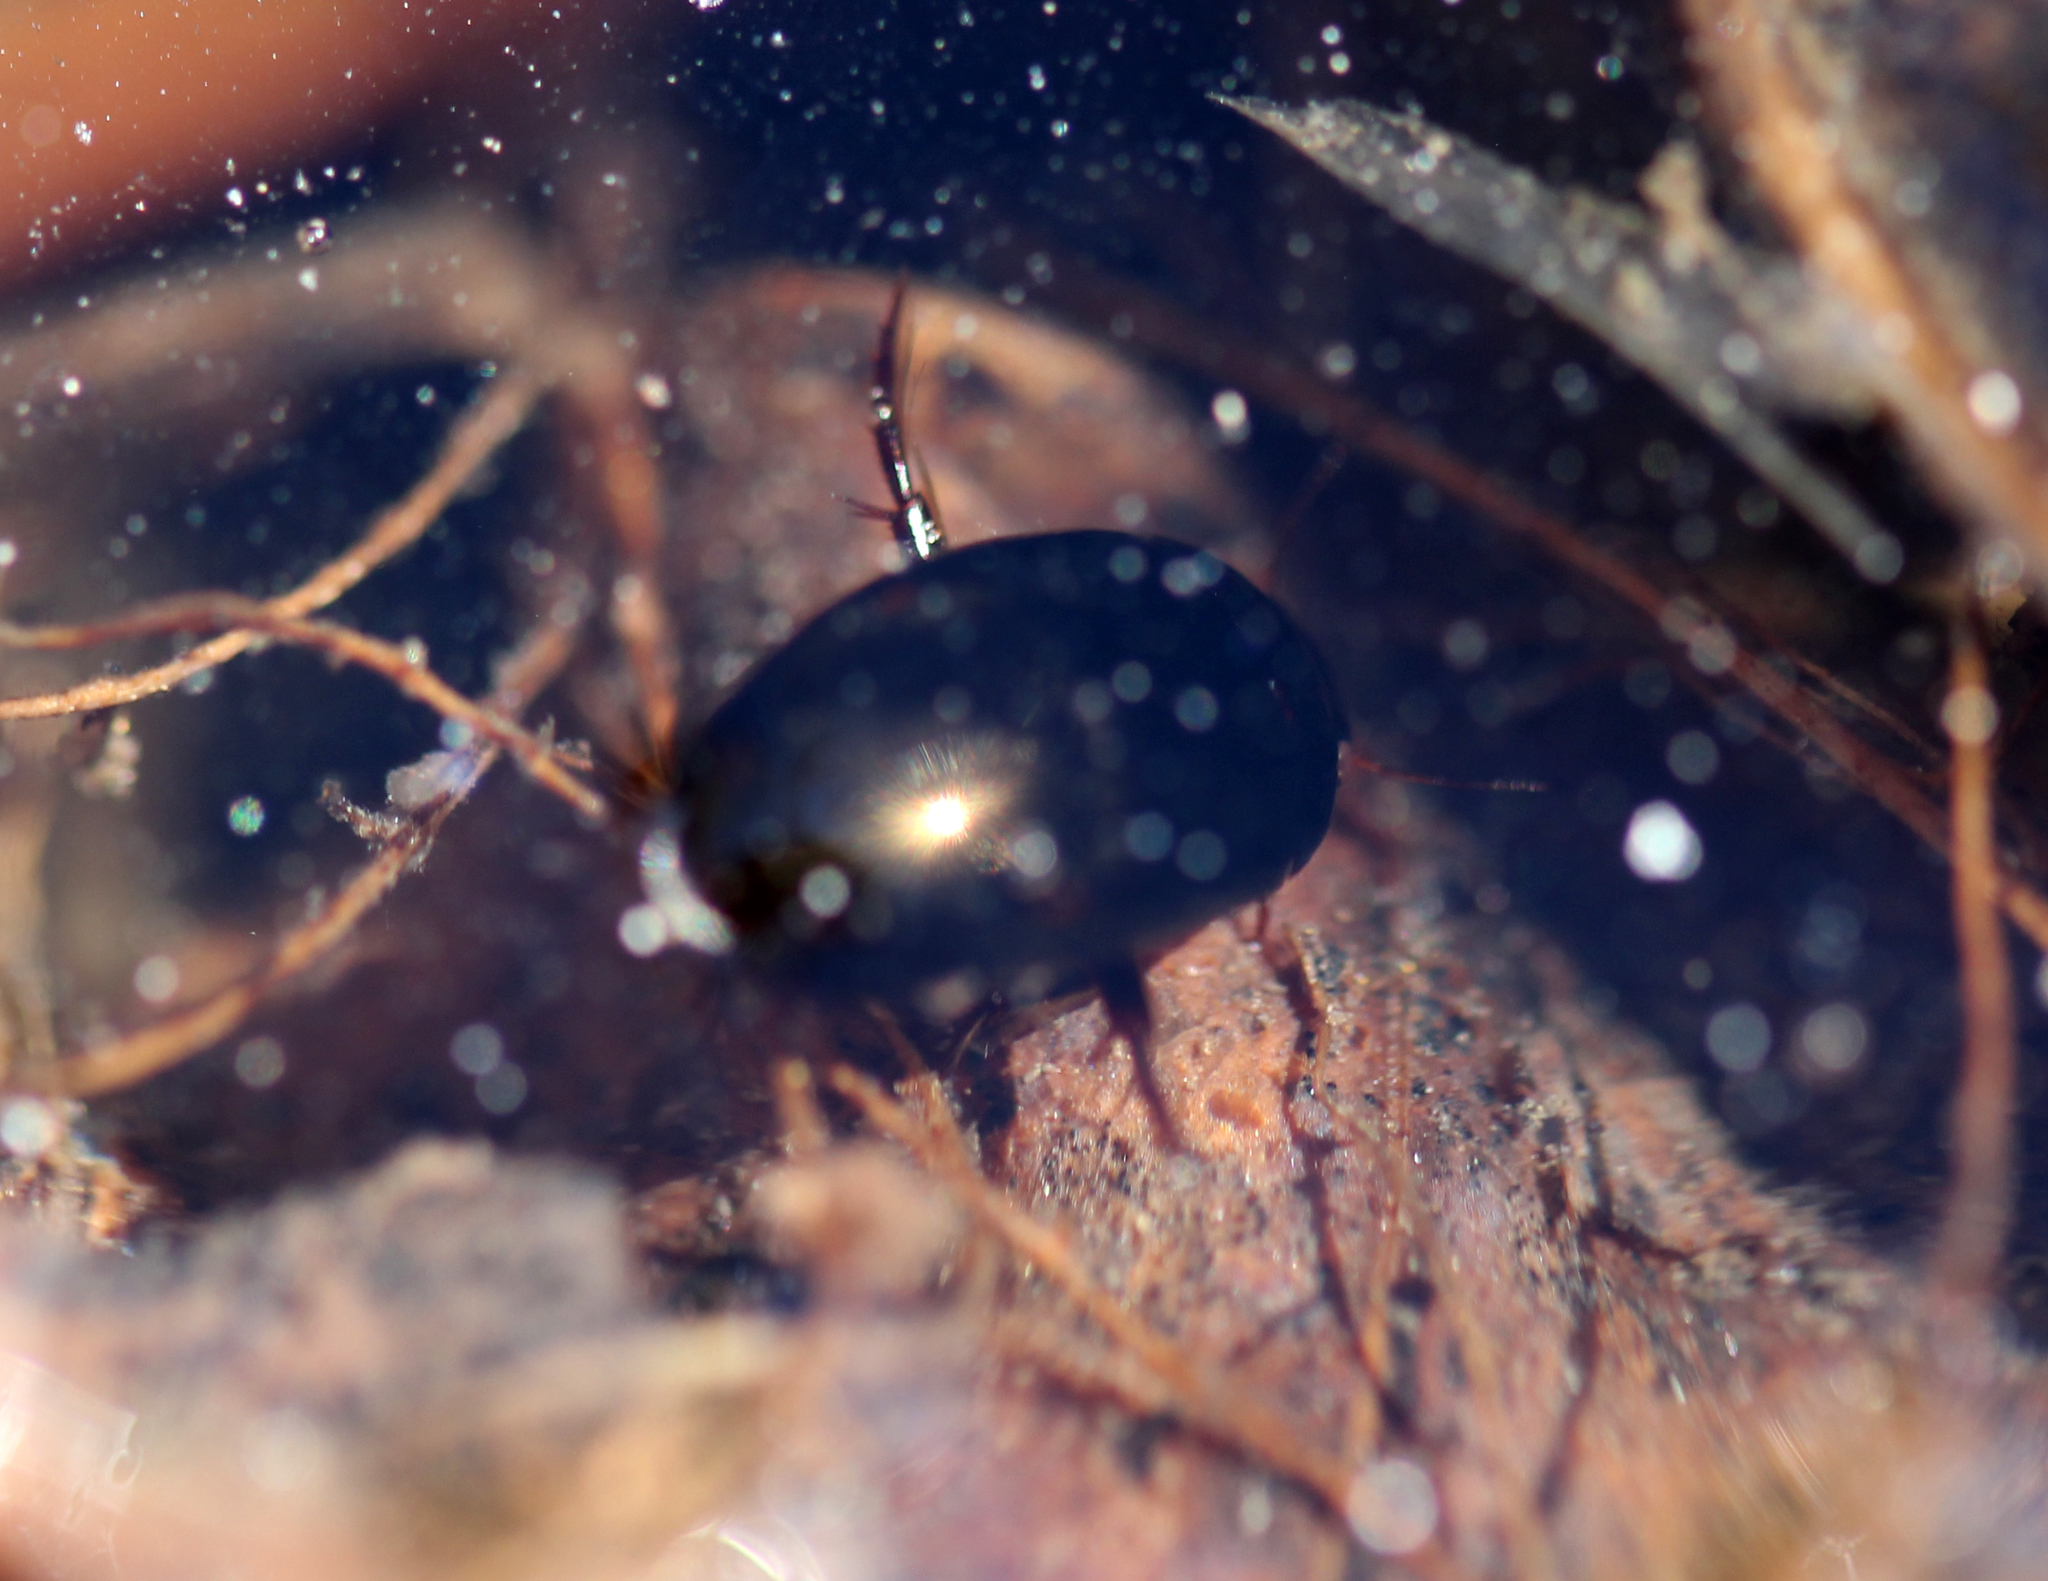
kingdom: Animalia
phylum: Arthropoda
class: Insecta
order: Coleoptera
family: Dytiscidae
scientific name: Dytiscidae
